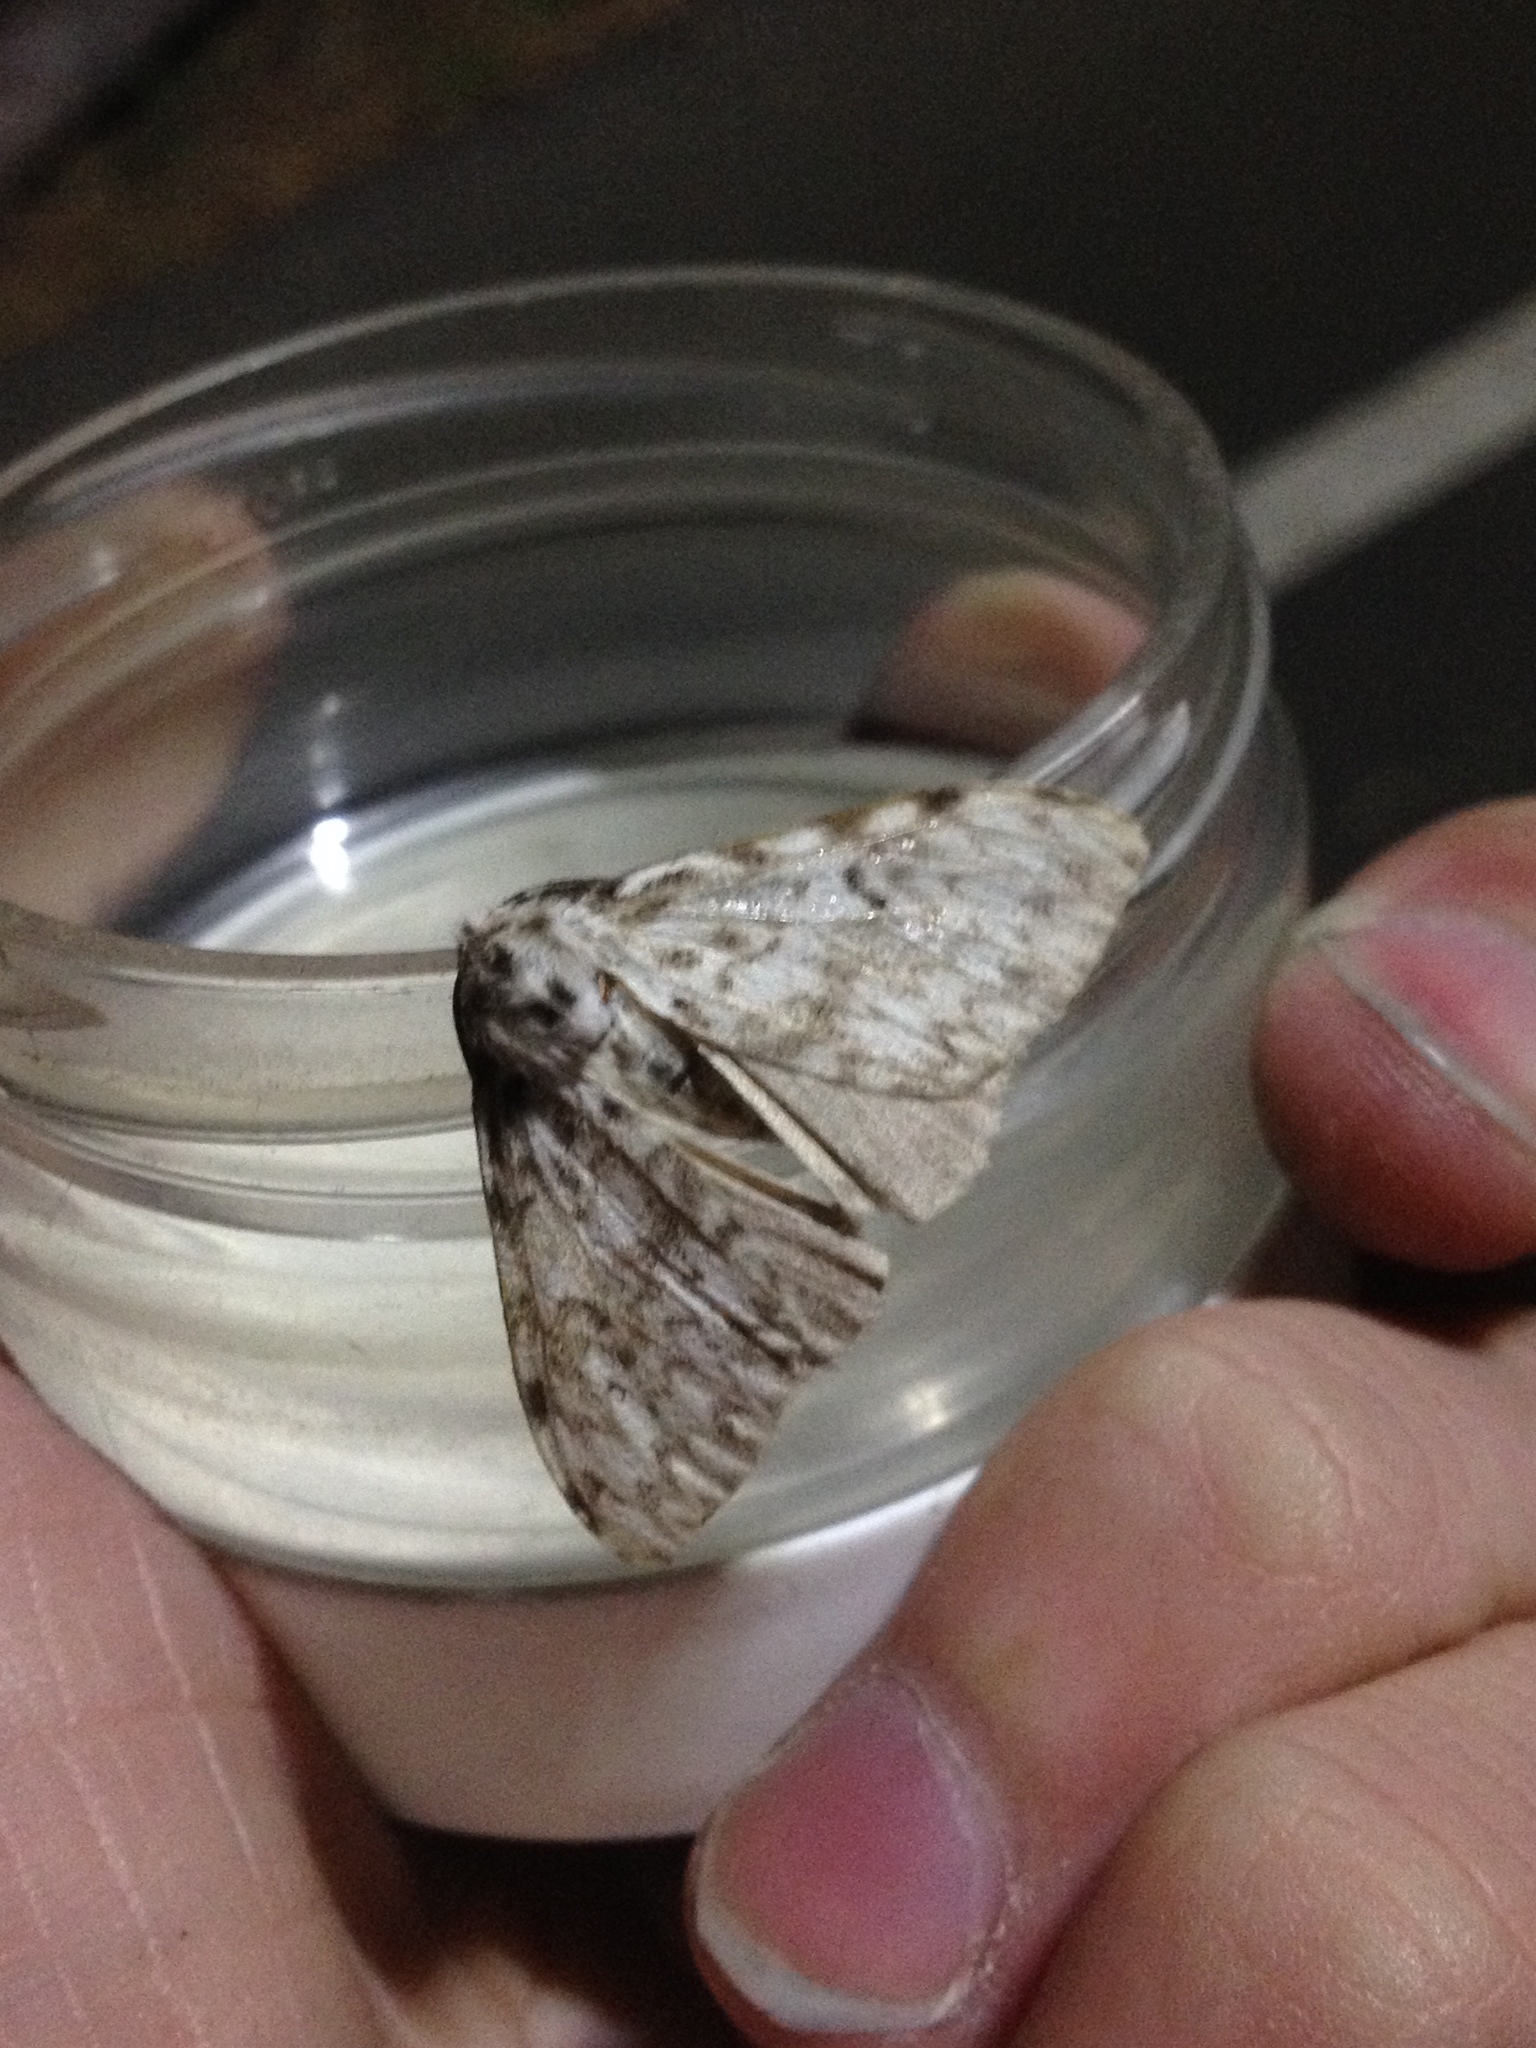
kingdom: Animalia
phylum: Arthropoda
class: Insecta
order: Lepidoptera
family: Erebidae
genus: Lymantria
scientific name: Lymantria monacha
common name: Black arches
